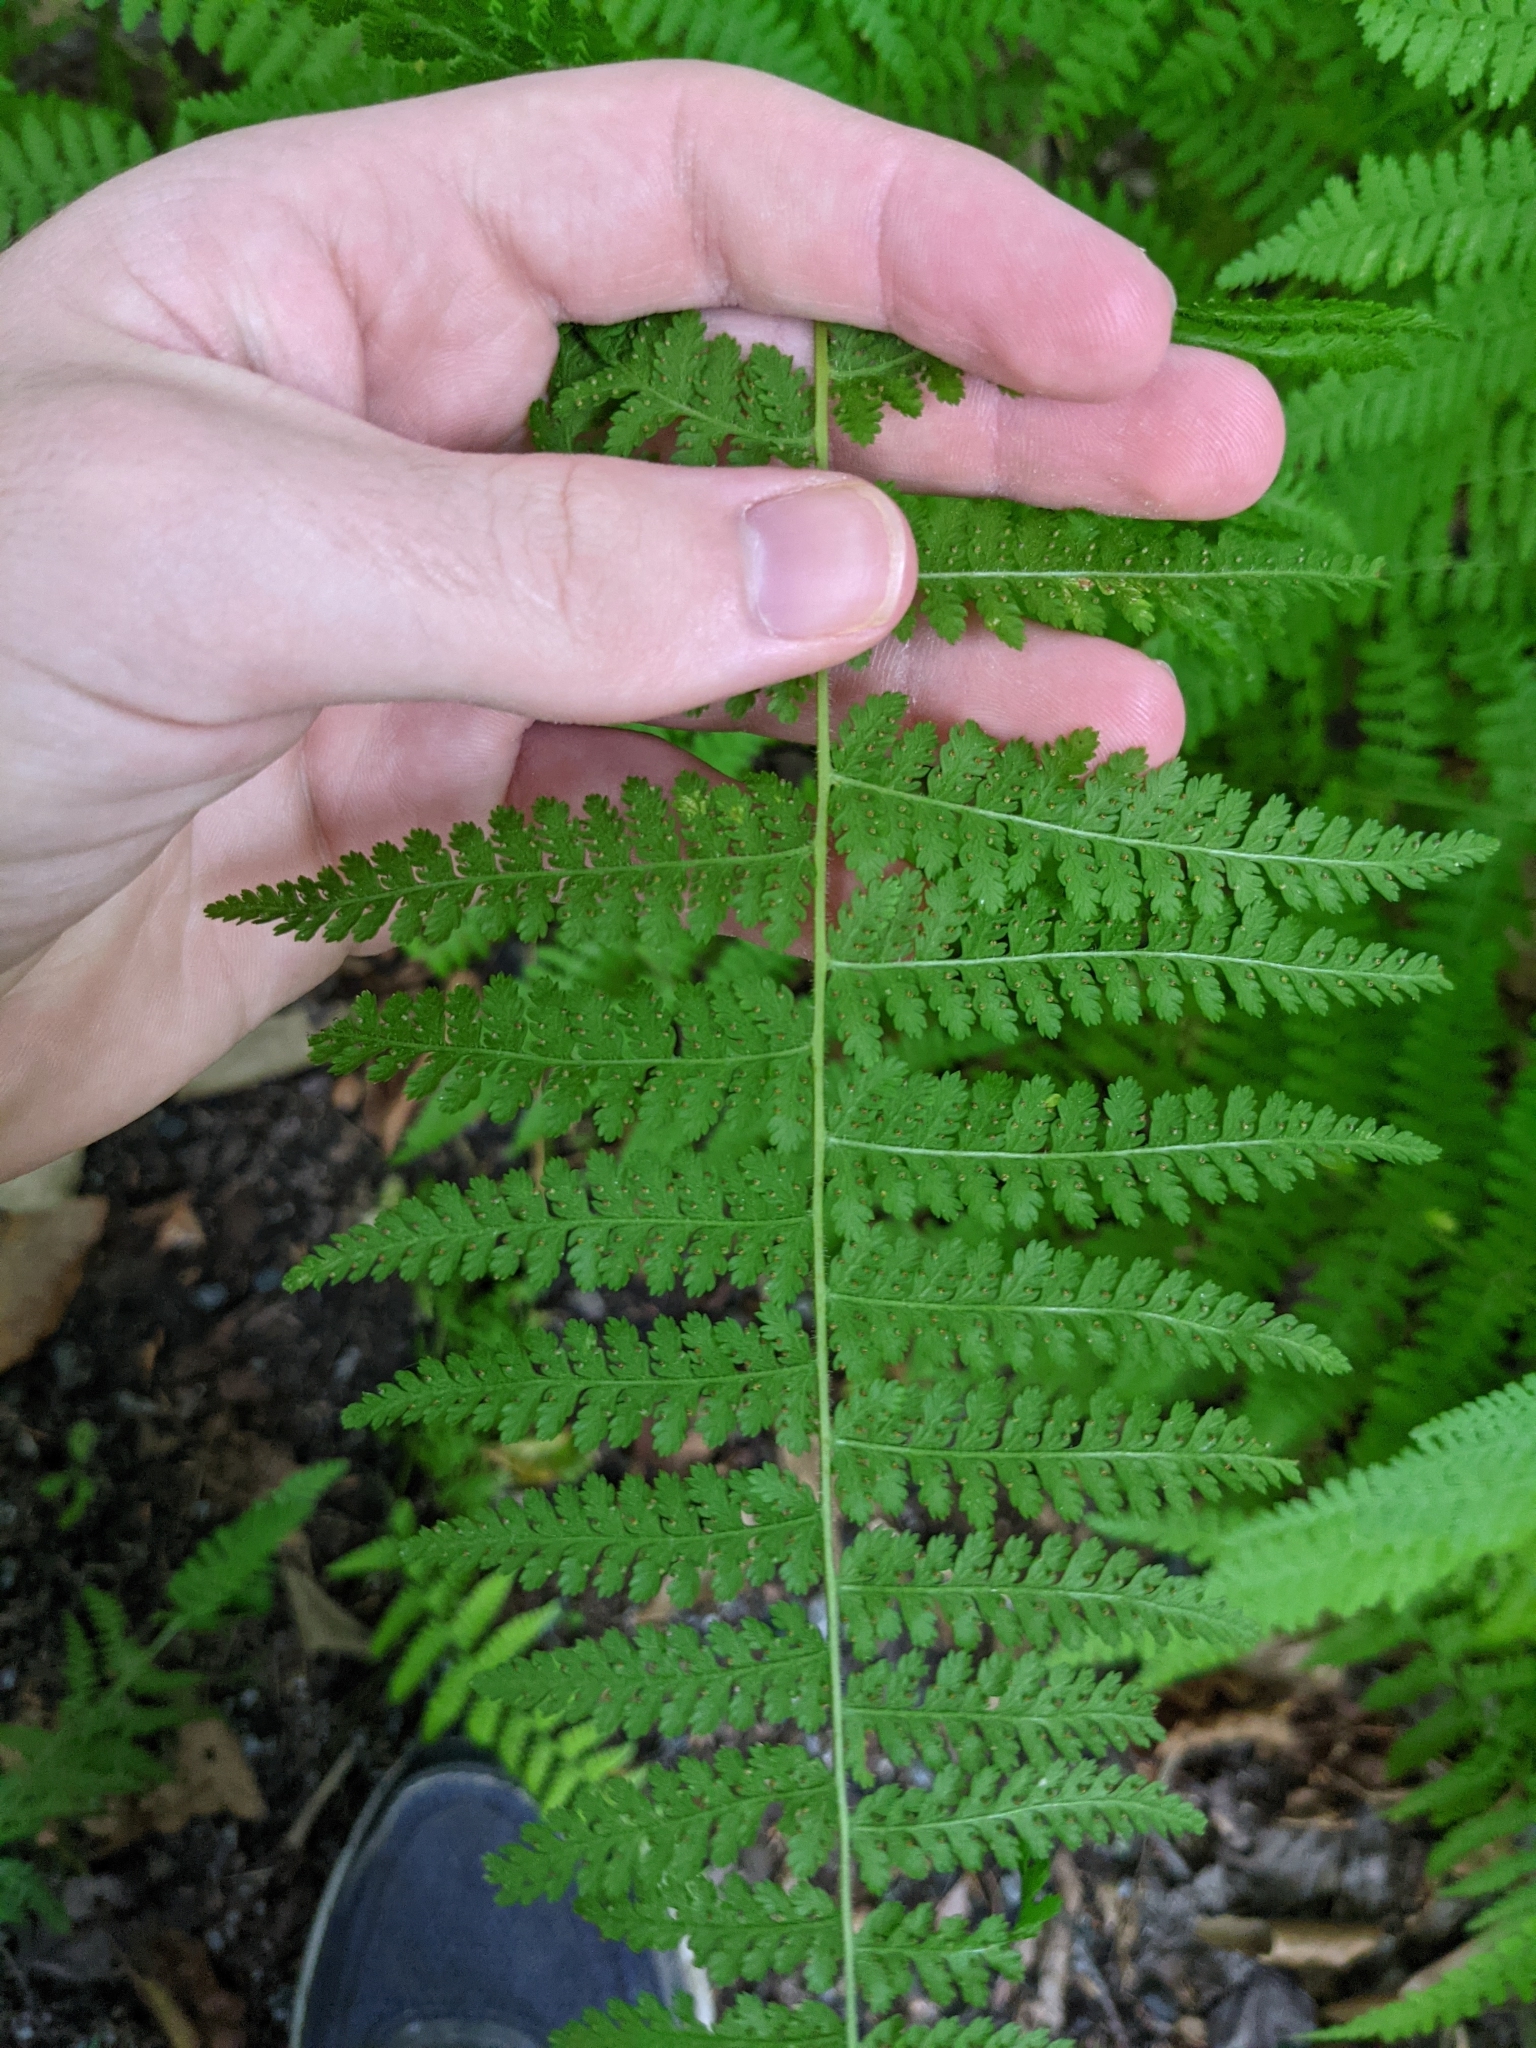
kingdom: Plantae
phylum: Tracheophyta
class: Polypodiopsida
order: Polypodiales
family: Dennstaedtiaceae
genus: Sitobolium
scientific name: Sitobolium punctilobum
